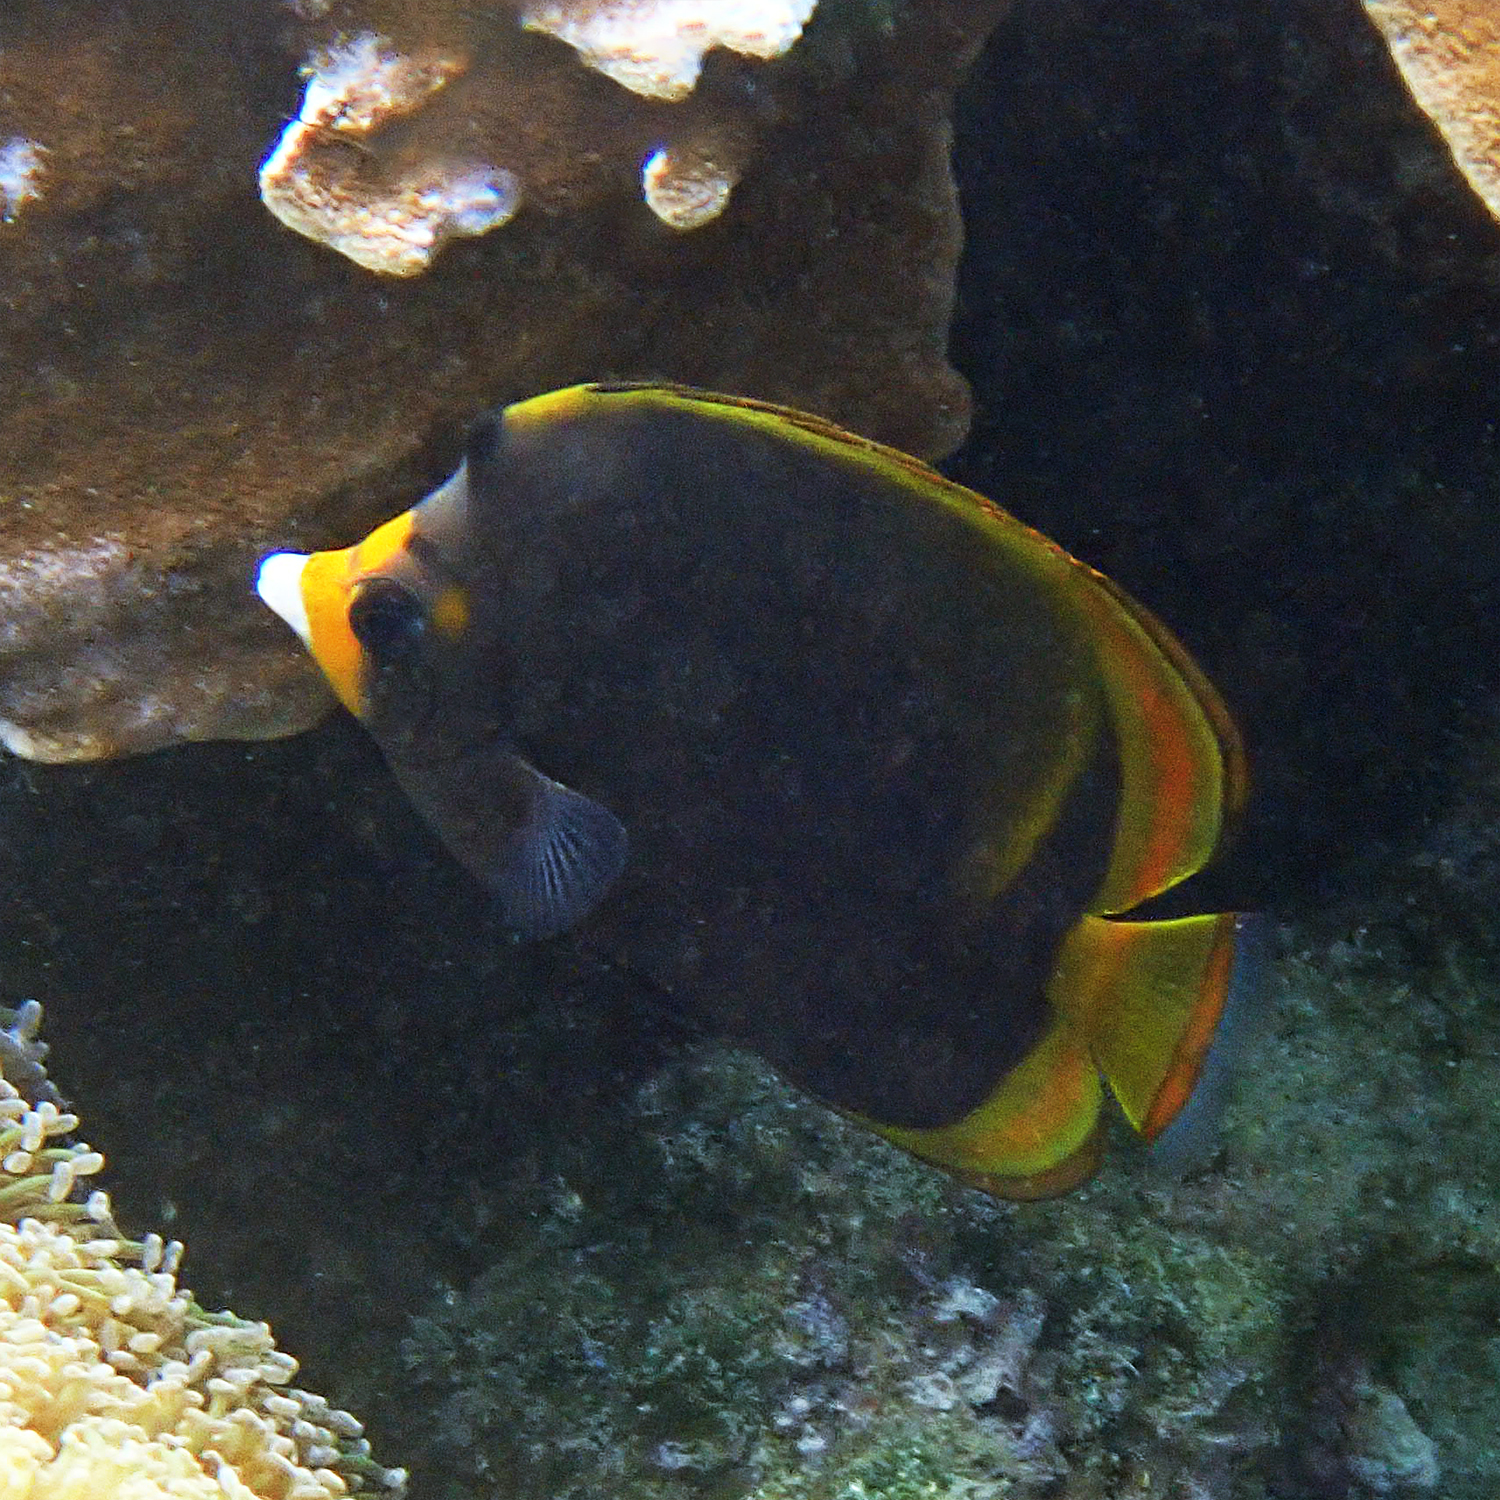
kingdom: Animalia
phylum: Chordata
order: Perciformes
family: Chaetodontidae
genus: Chaetodon
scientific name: Chaetodon flavirostris
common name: Black butterflyfish
